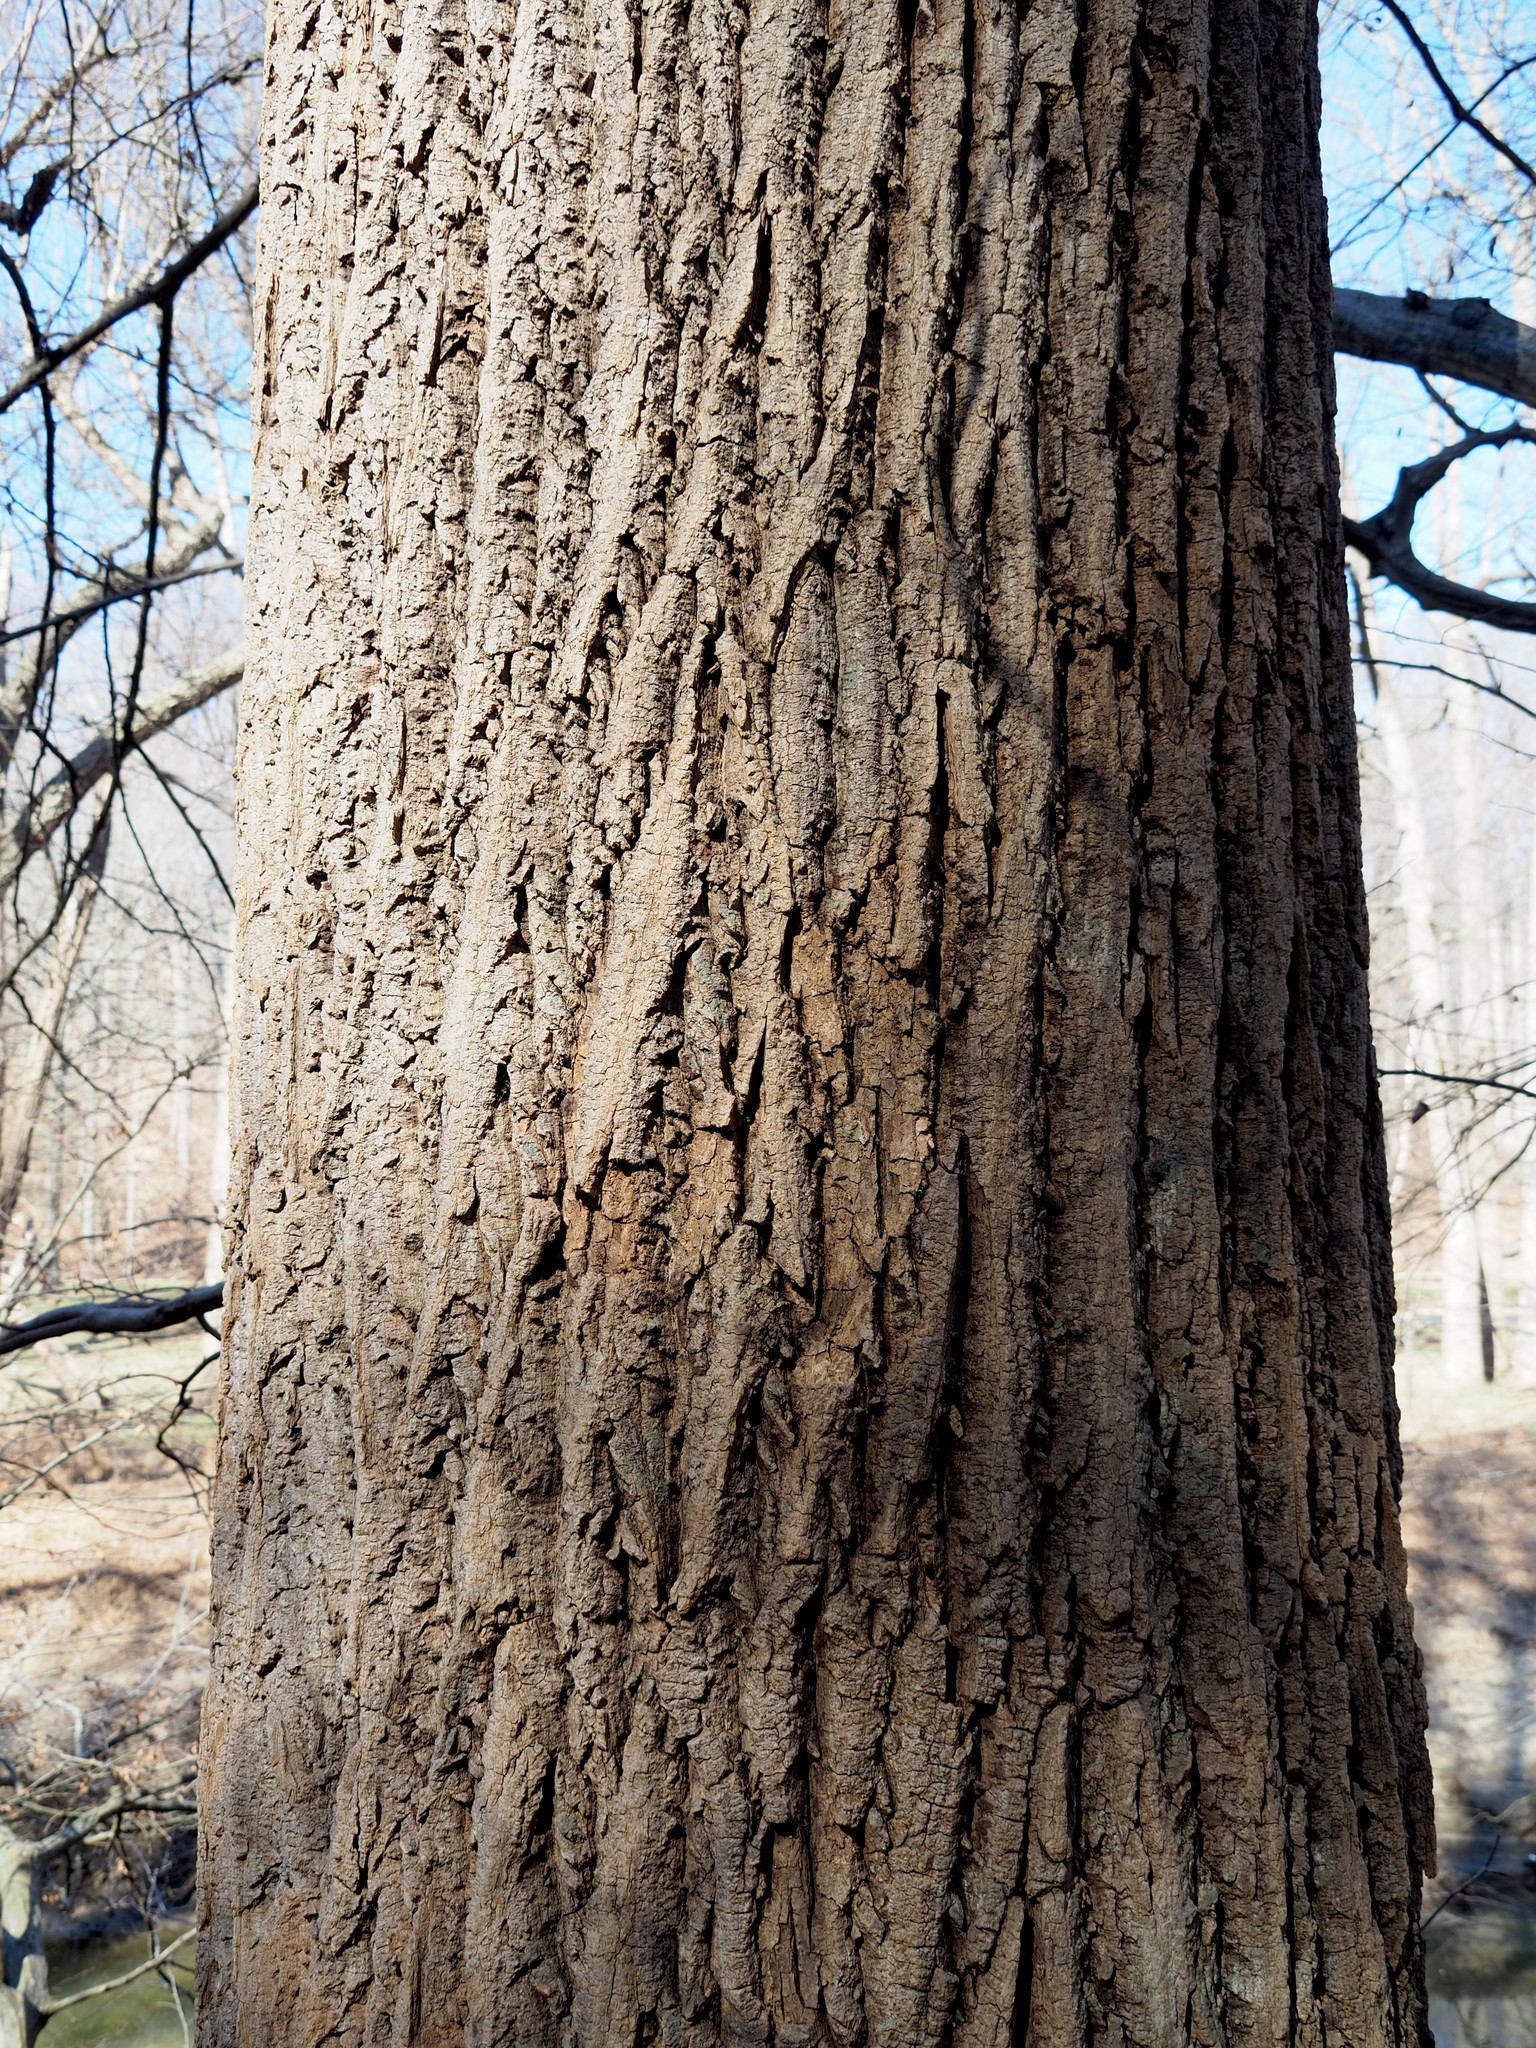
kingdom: Plantae
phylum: Tracheophyta
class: Magnoliopsida
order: Magnoliales
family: Magnoliaceae
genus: Liriodendron
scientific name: Liriodendron tulipifera
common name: Tulip tree
